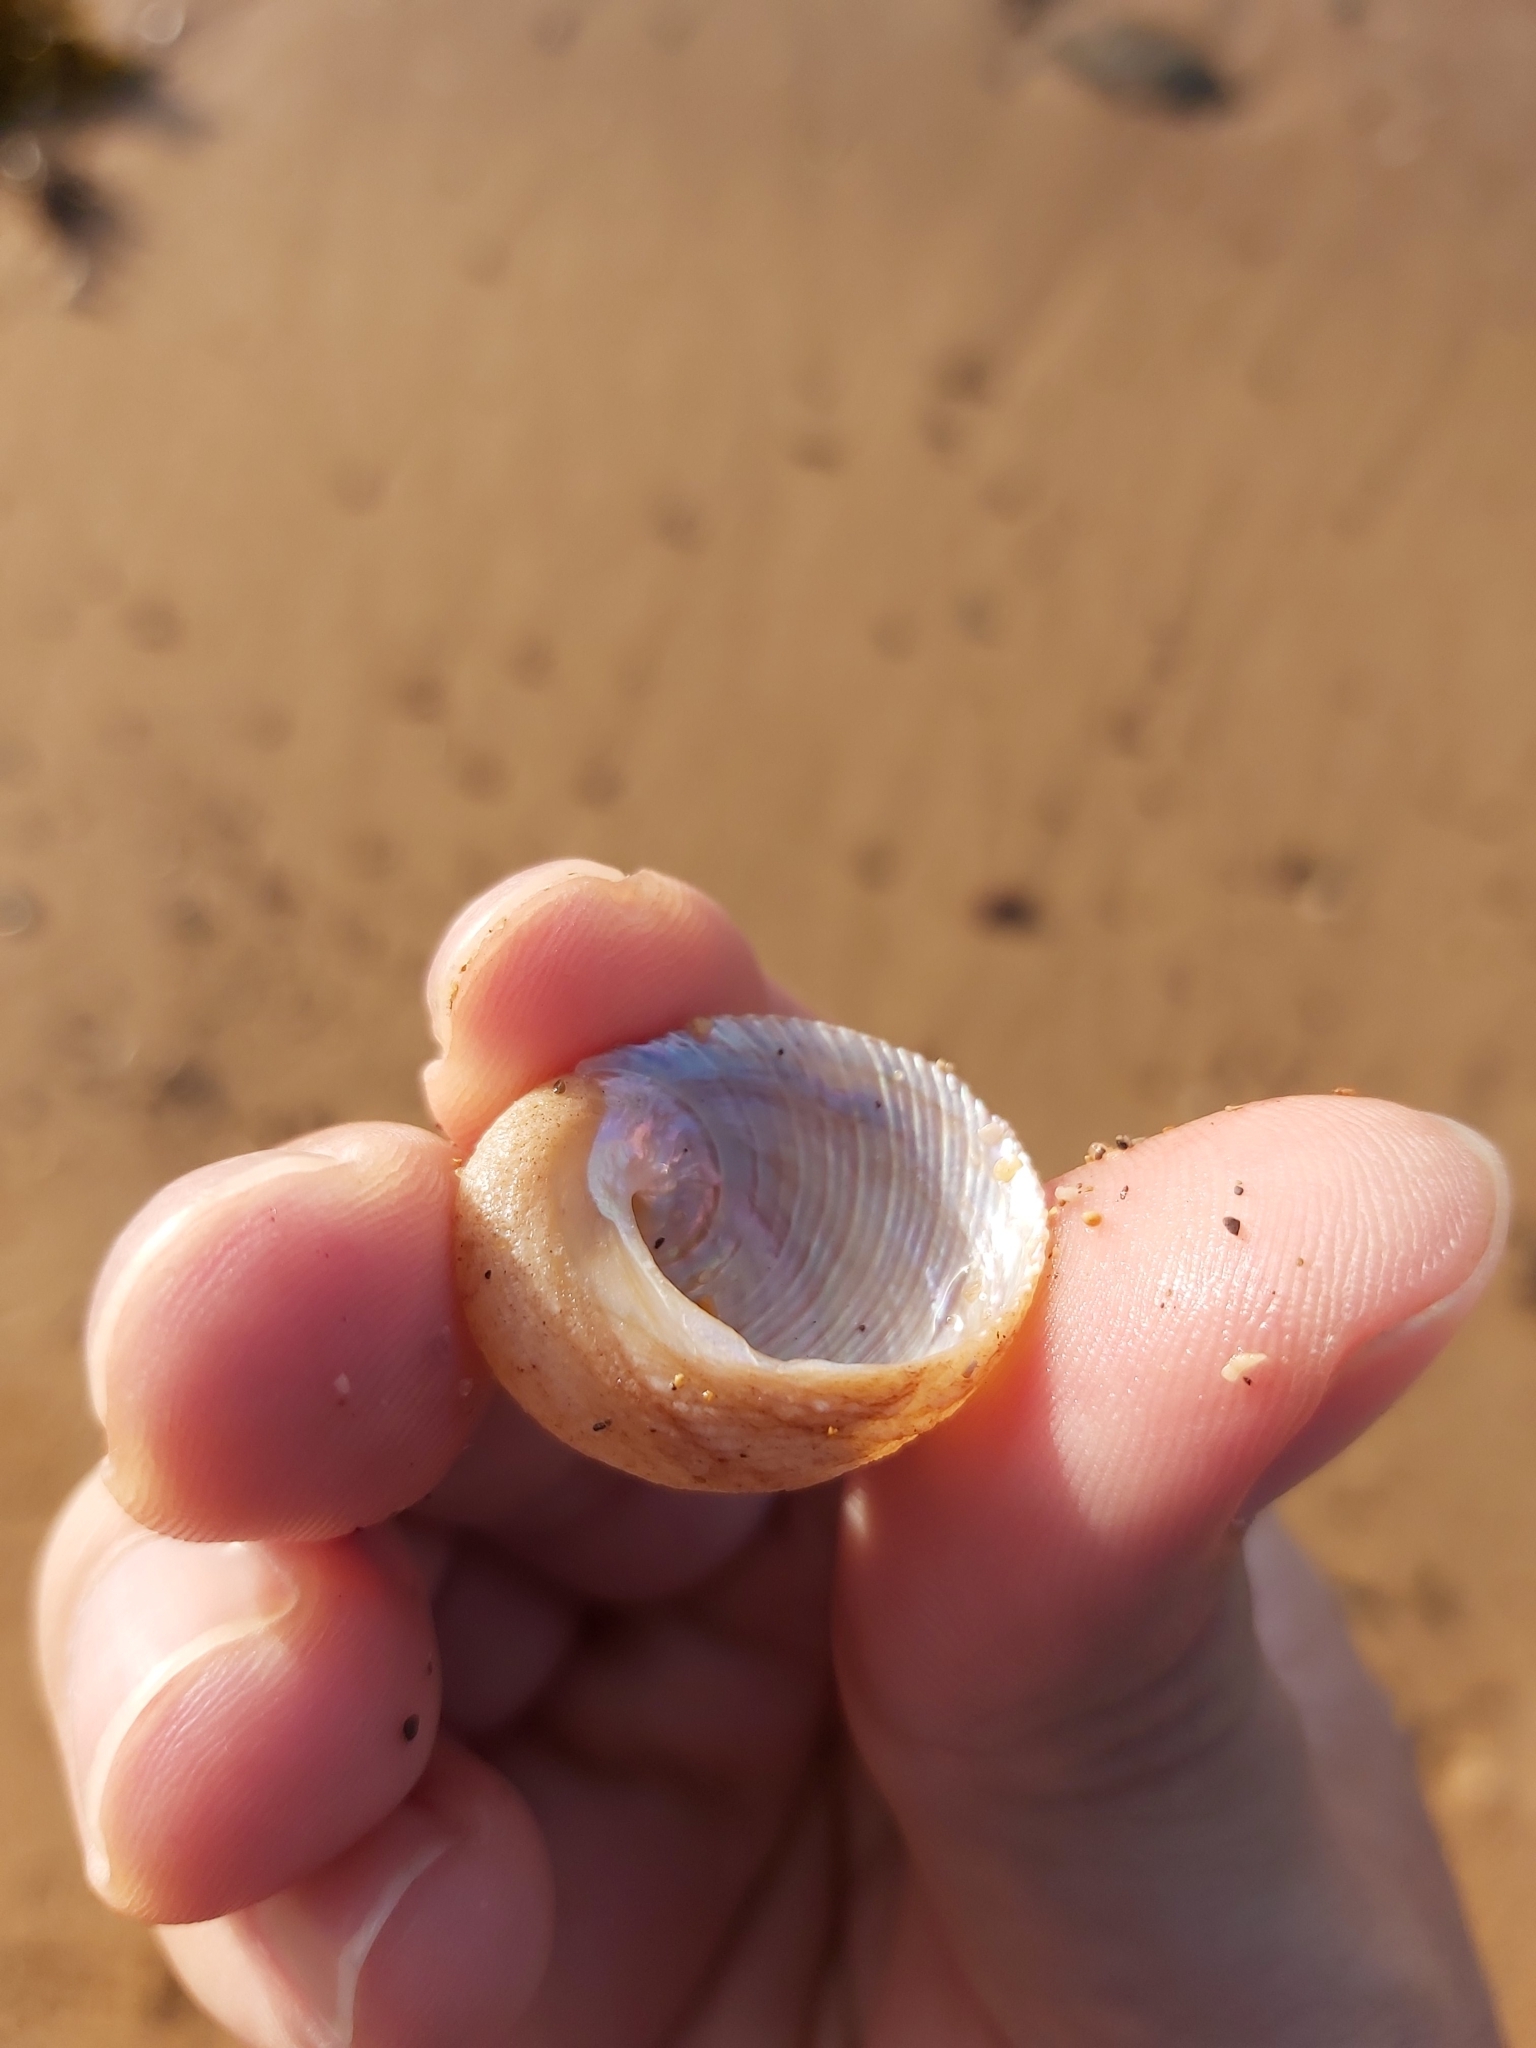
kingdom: Animalia
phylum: Mollusca
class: Gastropoda
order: Seguenziida
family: Chilodontaidae
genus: Granata
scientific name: Granata imbricata
